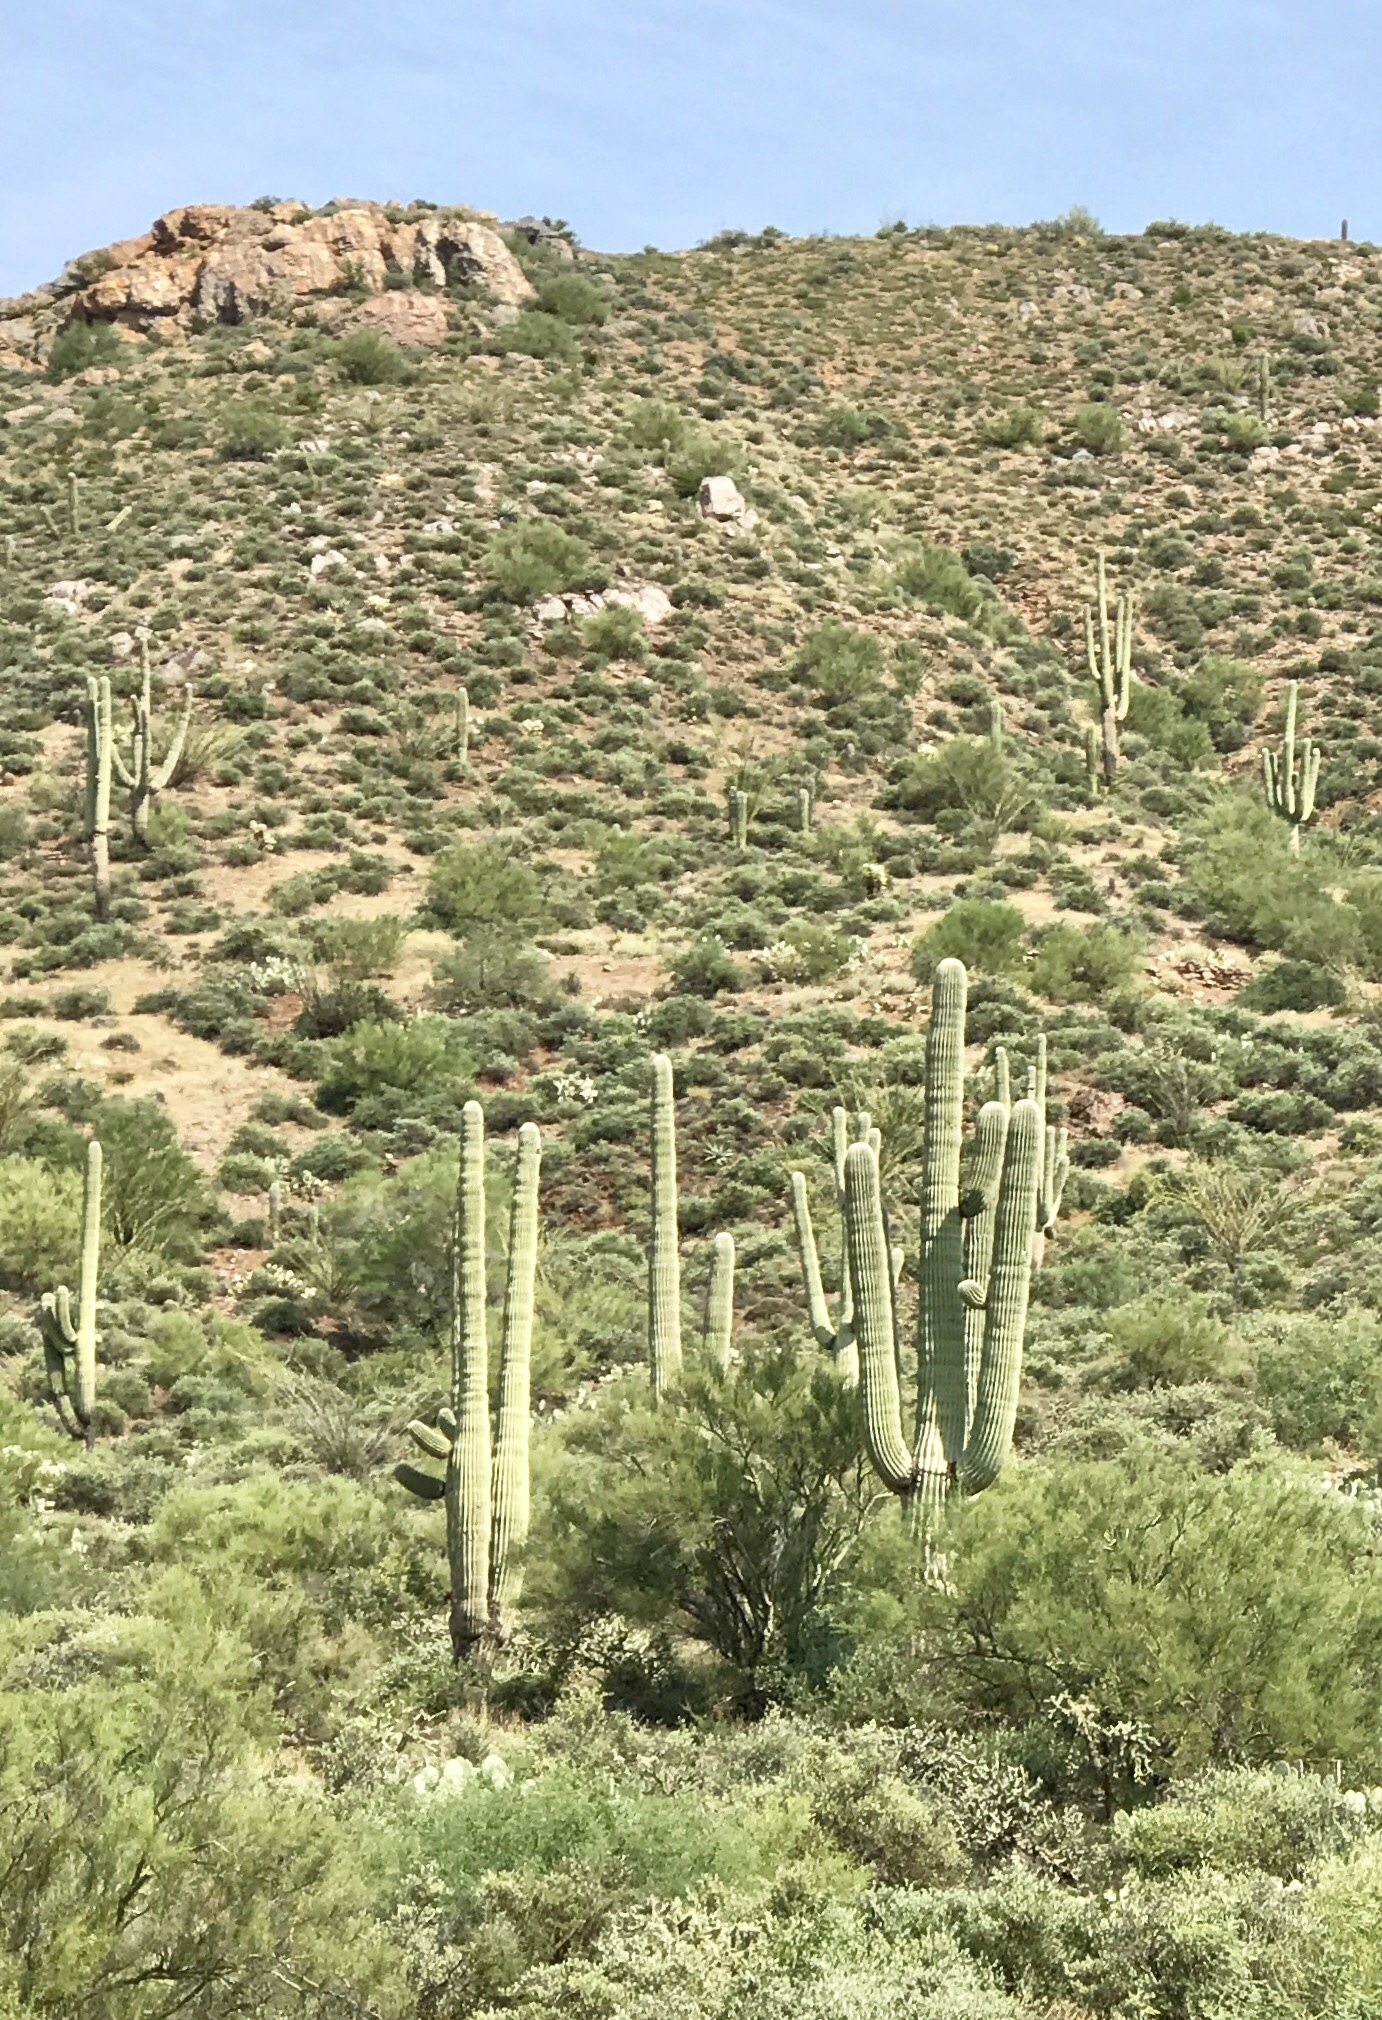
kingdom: Plantae
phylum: Tracheophyta
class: Magnoliopsida
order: Caryophyllales
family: Cactaceae
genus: Carnegiea
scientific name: Carnegiea gigantea
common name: Saguaro
